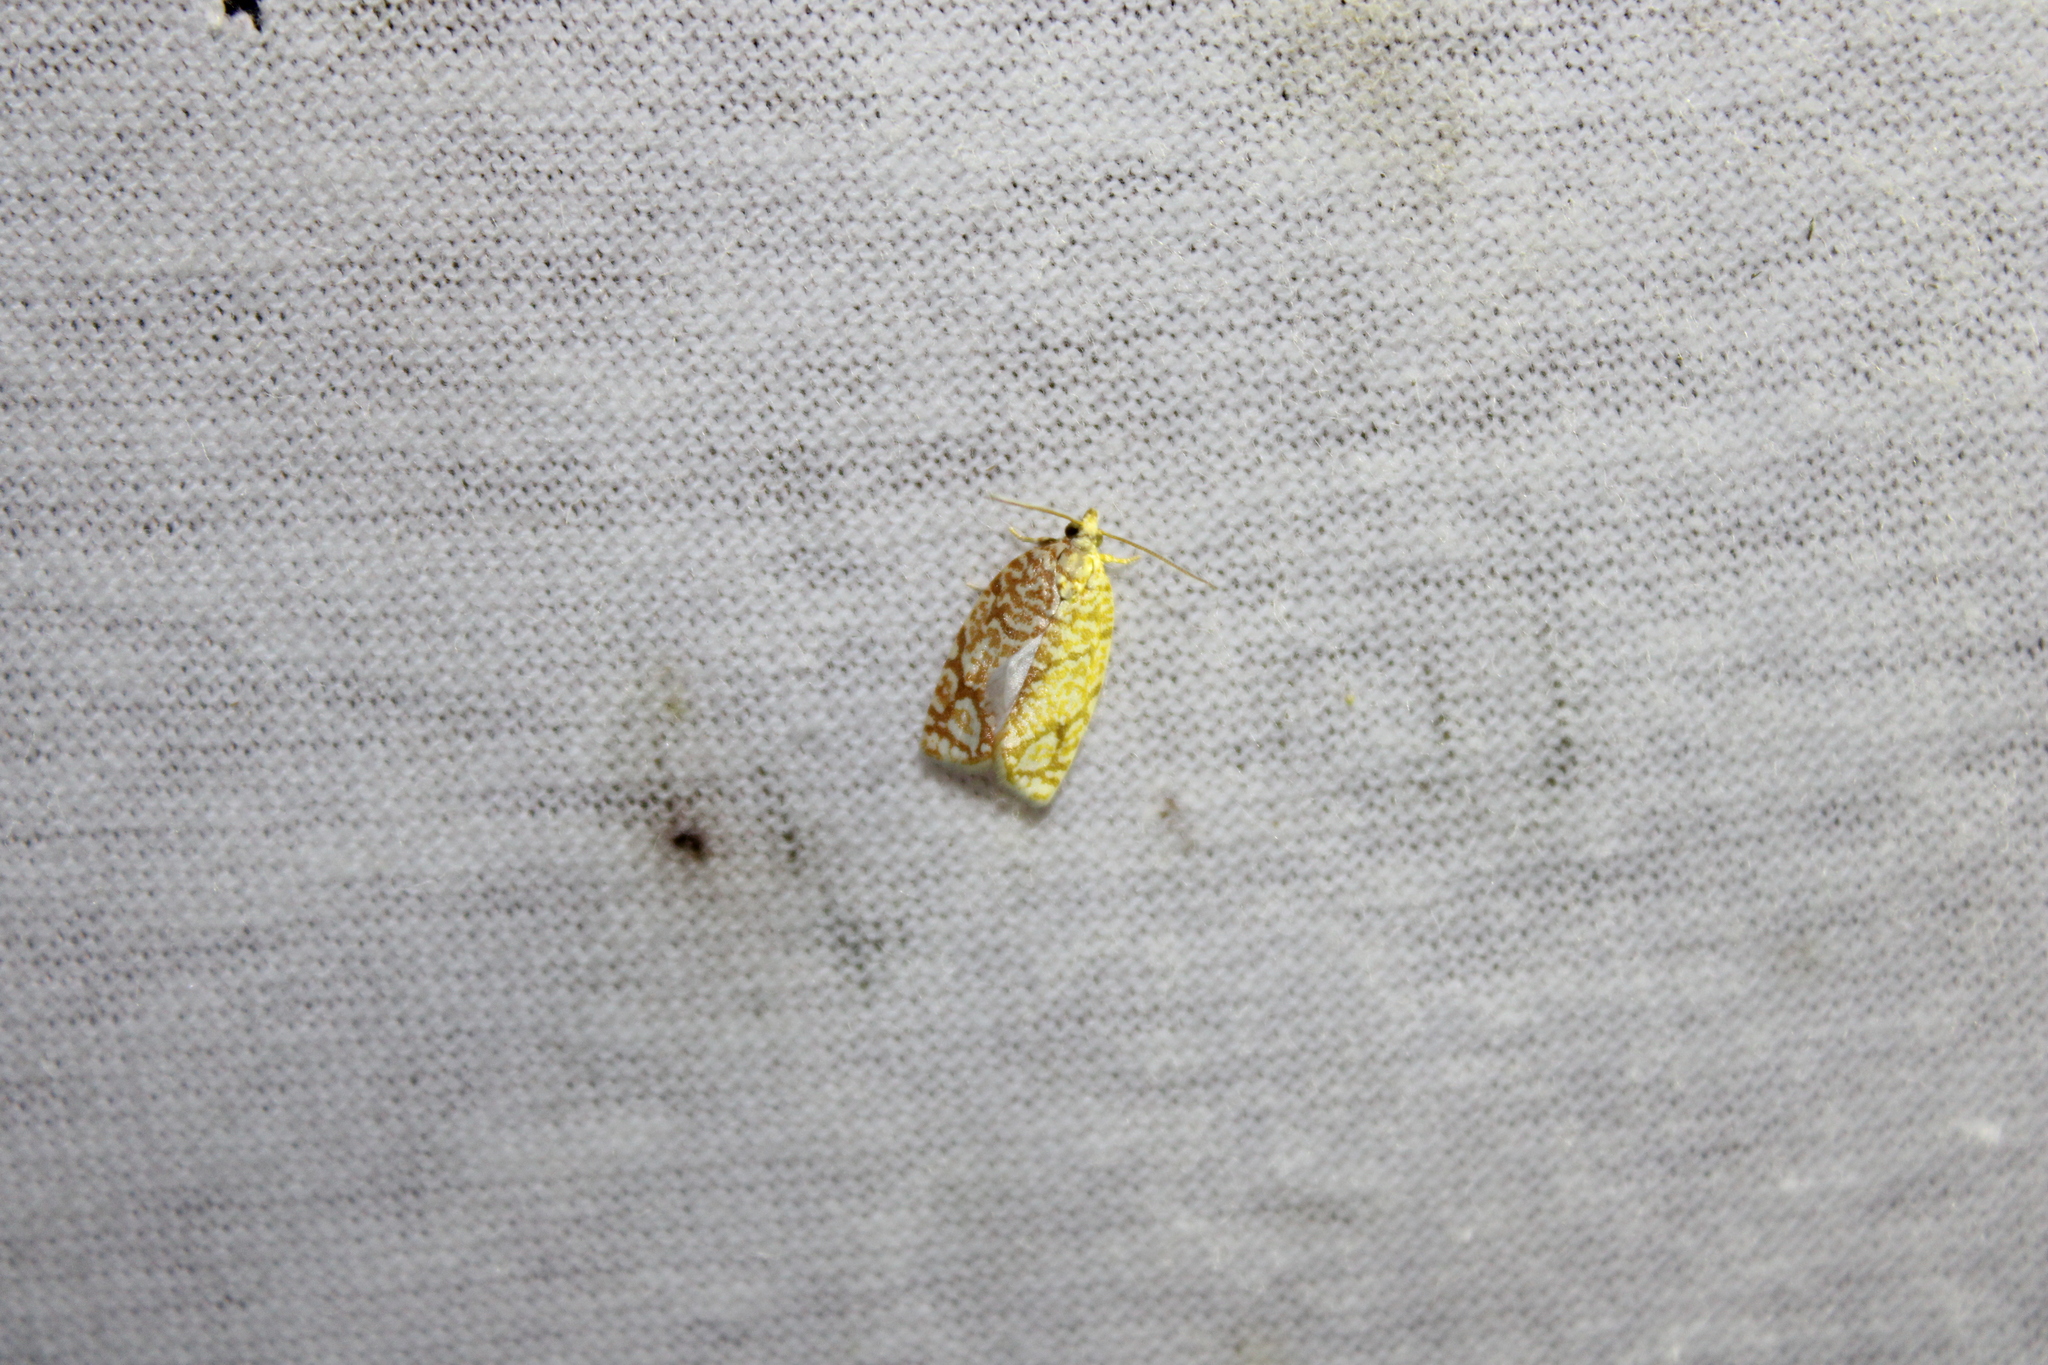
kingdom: Animalia
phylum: Arthropoda
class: Insecta
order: Lepidoptera
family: Tortricidae
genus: Argyrotaenia
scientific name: Argyrotaenia quercifoliana
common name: Yellow-winged oak leafroller moth
